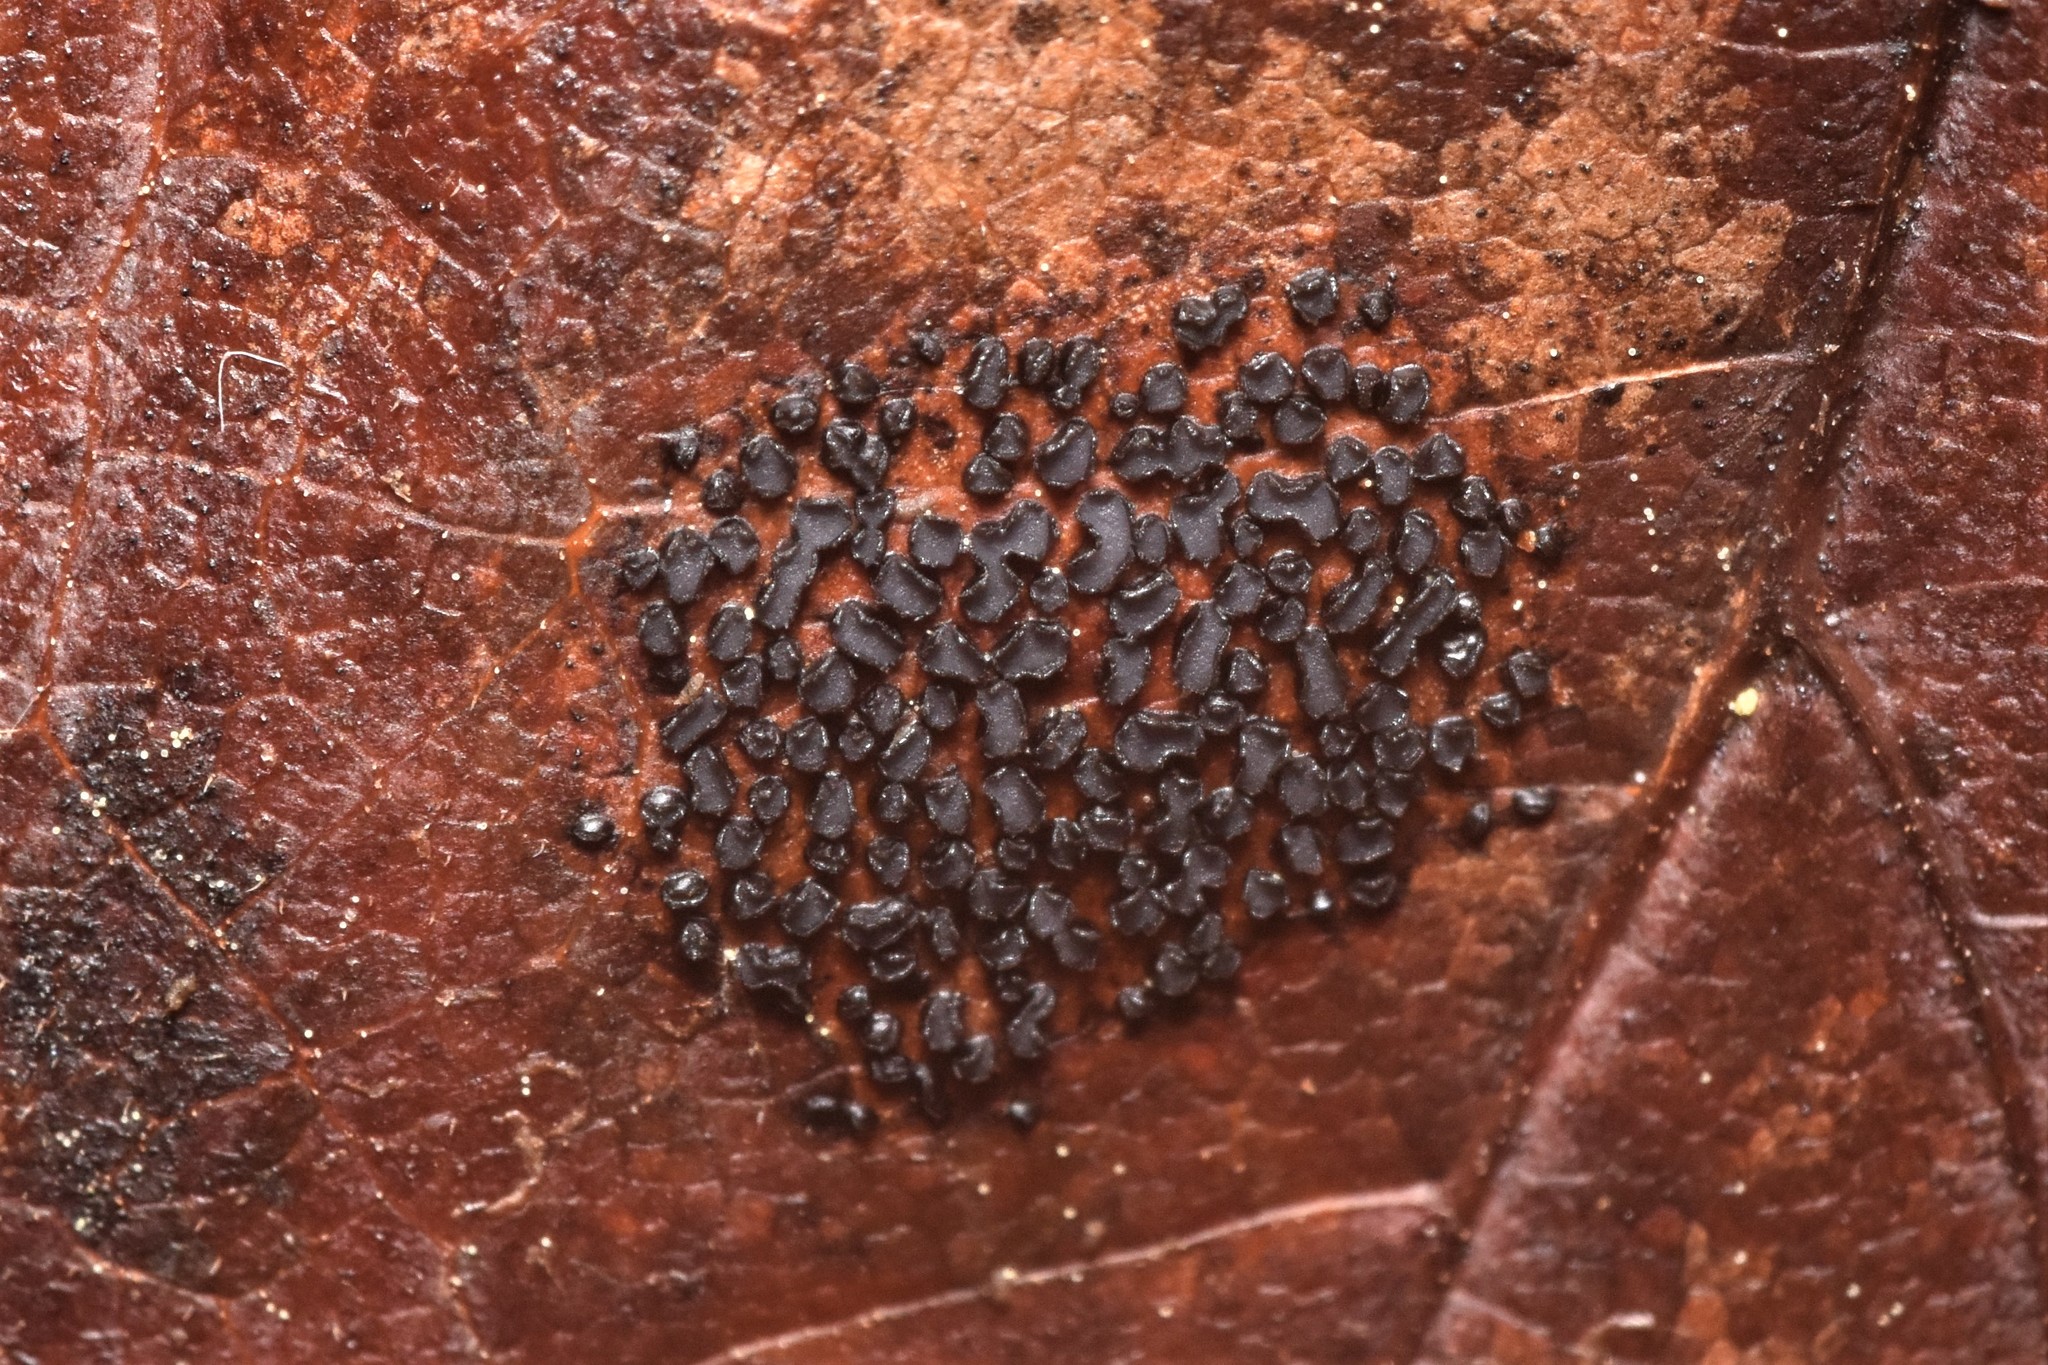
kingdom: Fungi
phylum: Ascomycota
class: Leotiomycetes
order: Rhytismatales
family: Rhytismataceae
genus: Rhytisma
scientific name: Rhytisma punctatum
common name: Speckled tar spot
